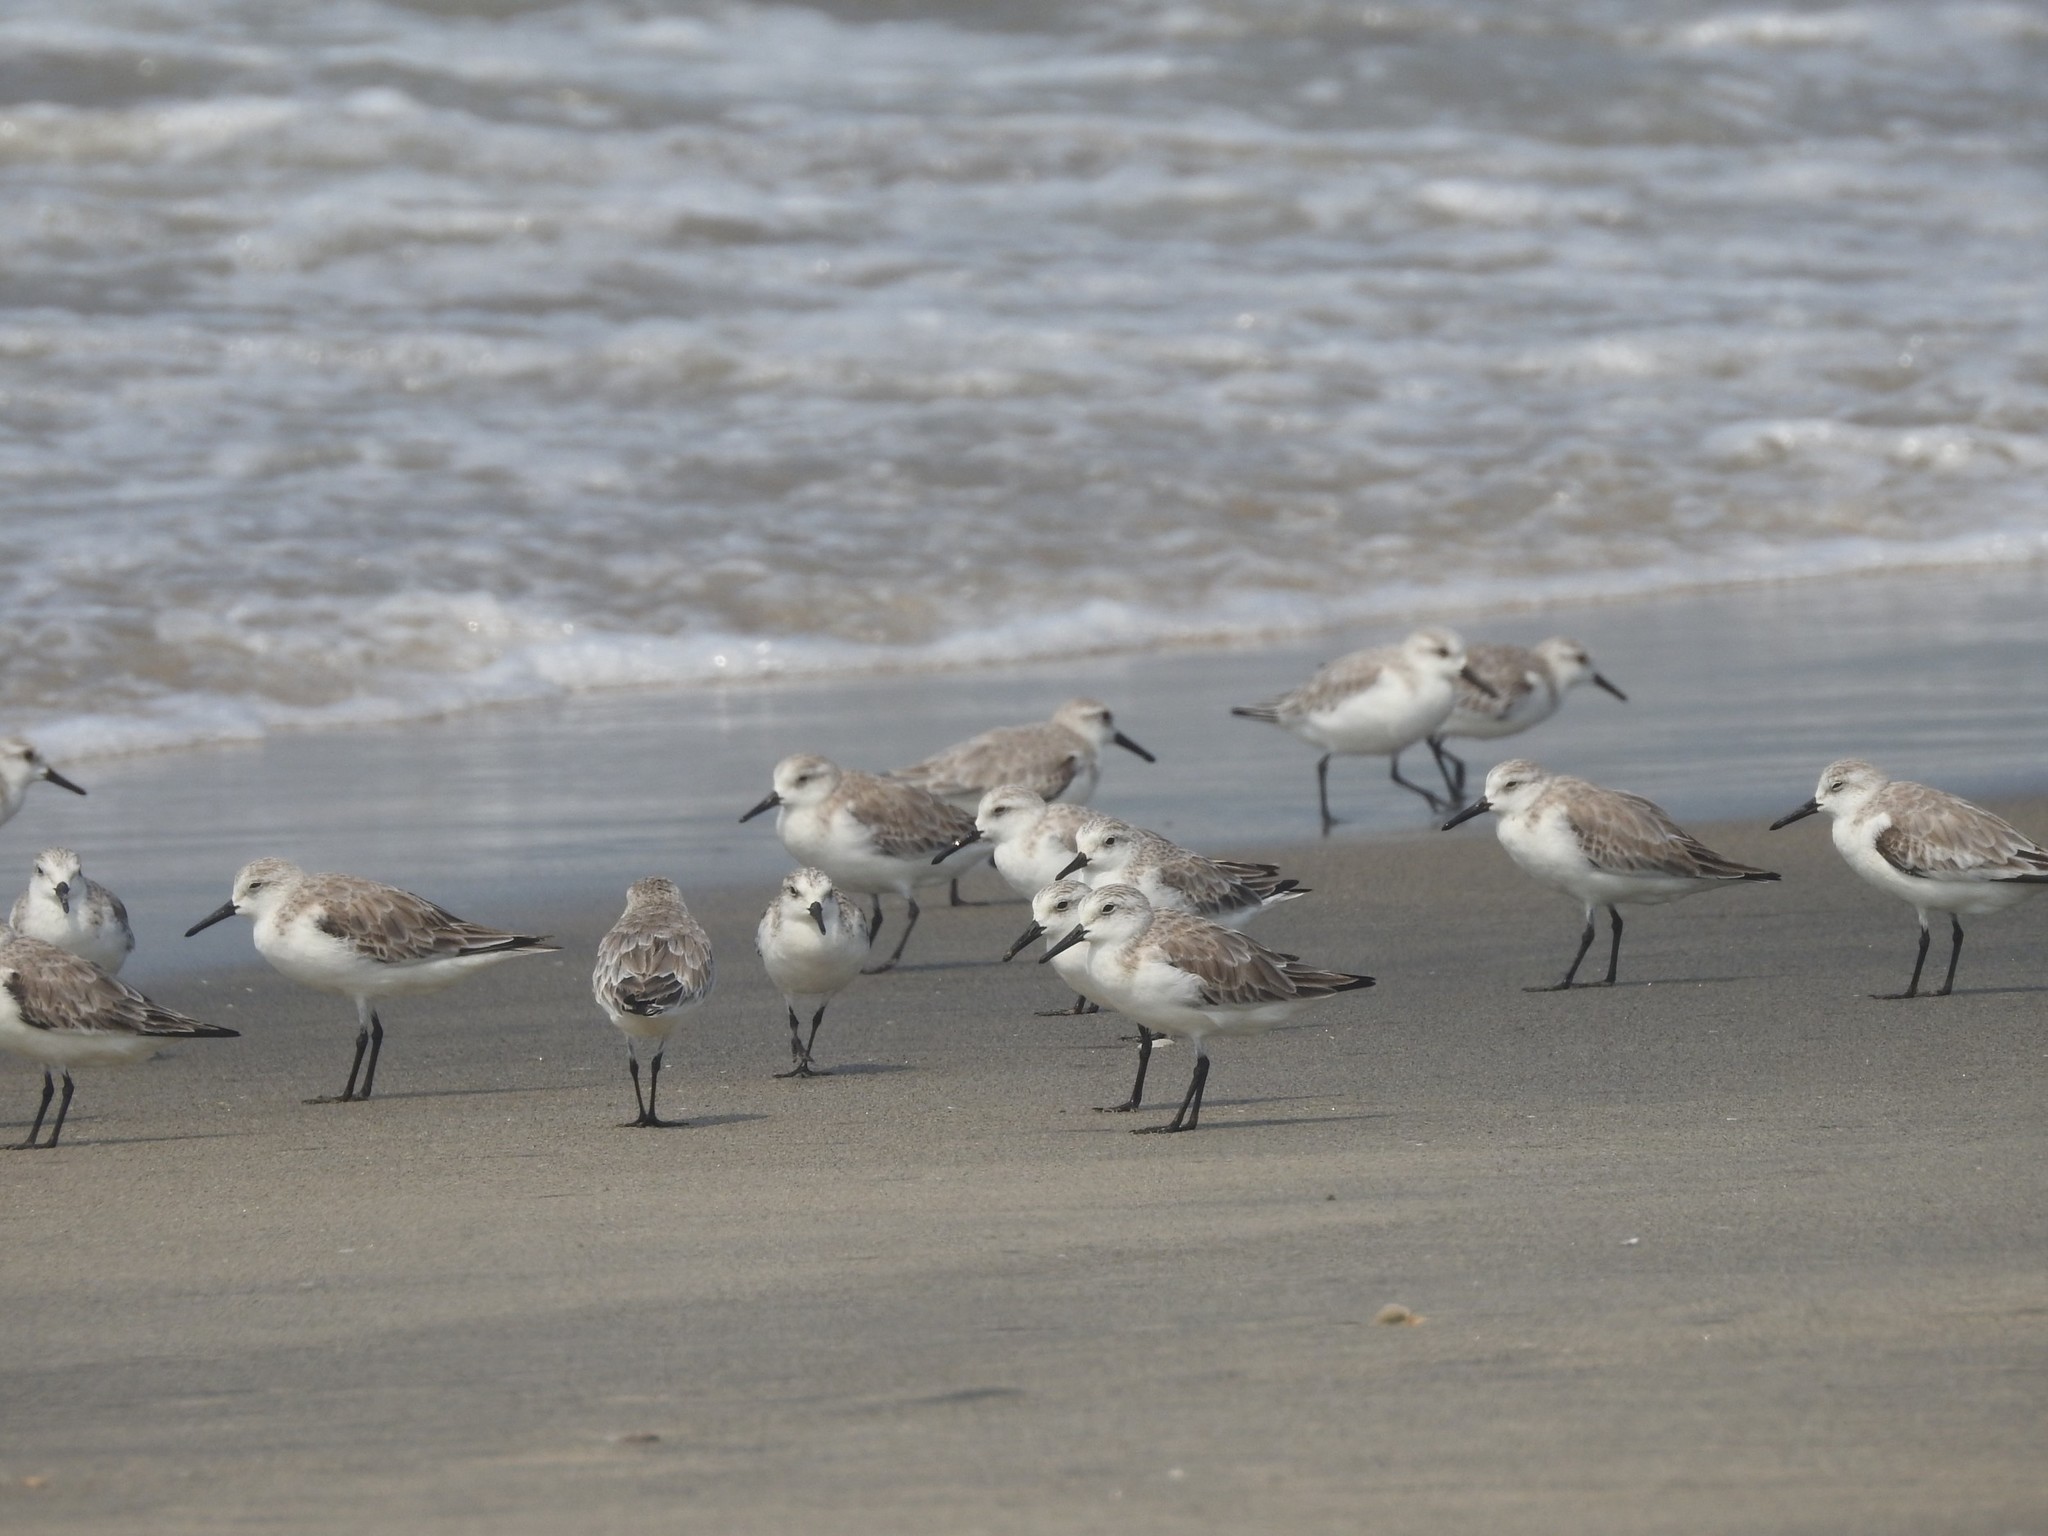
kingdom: Animalia
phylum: Chordata
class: Aves
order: Charadriiformes
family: Scolopacidae
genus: Calidris
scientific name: Calidris alba
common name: Sanderling
